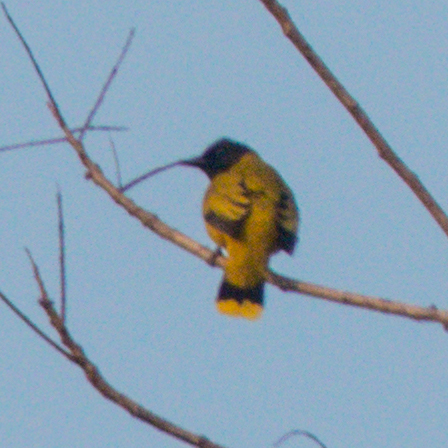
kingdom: Animalia
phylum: Chordata
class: Aves
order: Passeriformes
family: Pycnonotidae
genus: Microtarsus
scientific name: Microtarsus
